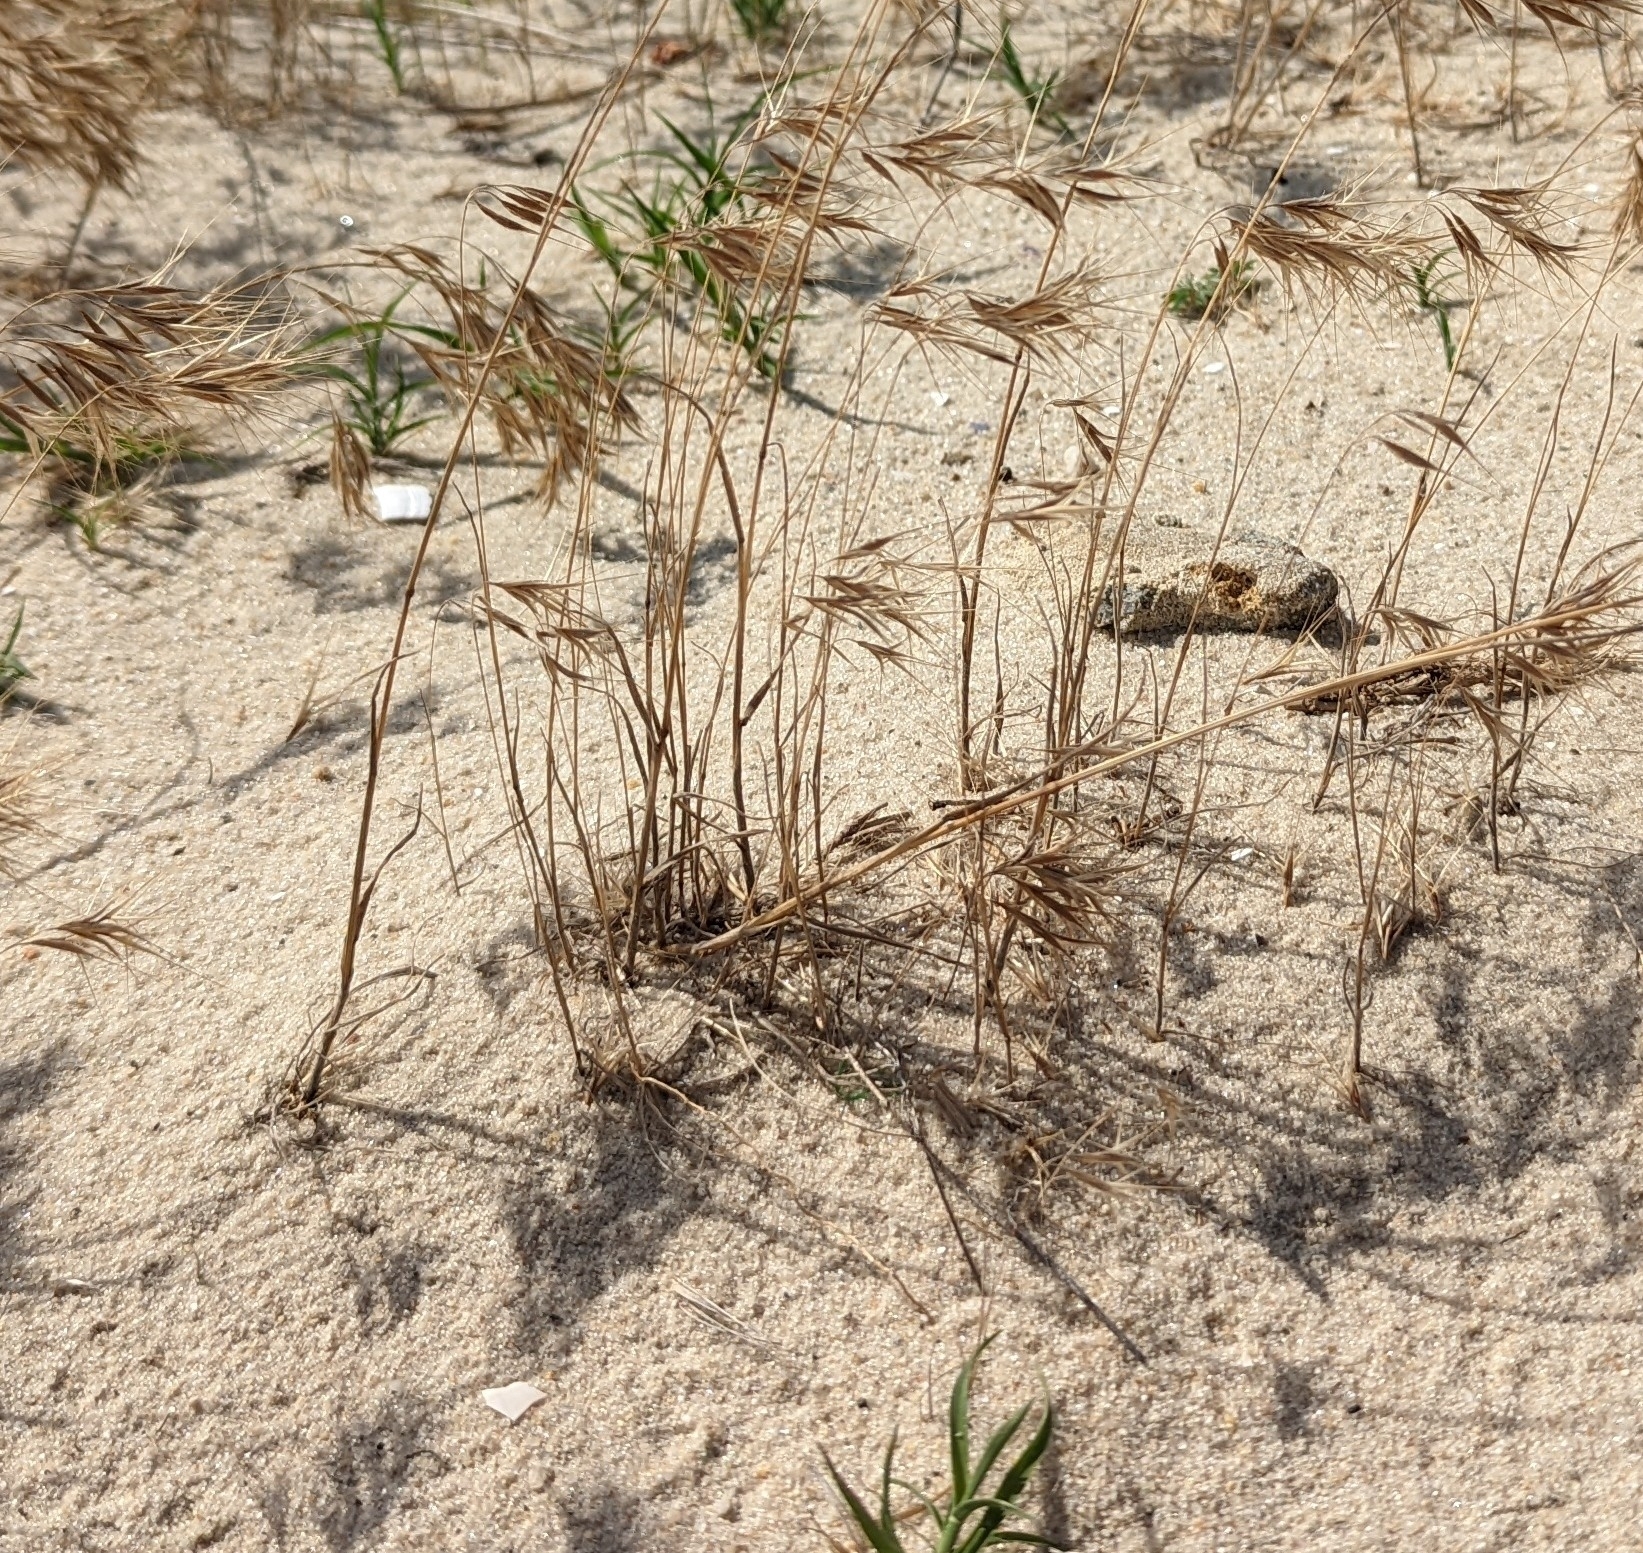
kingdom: Plantae
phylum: Tracheophyta
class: Liliopsida
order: Poales
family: Poaceae
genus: Bromus
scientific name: Bromus tectorum
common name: Cheatgrass
